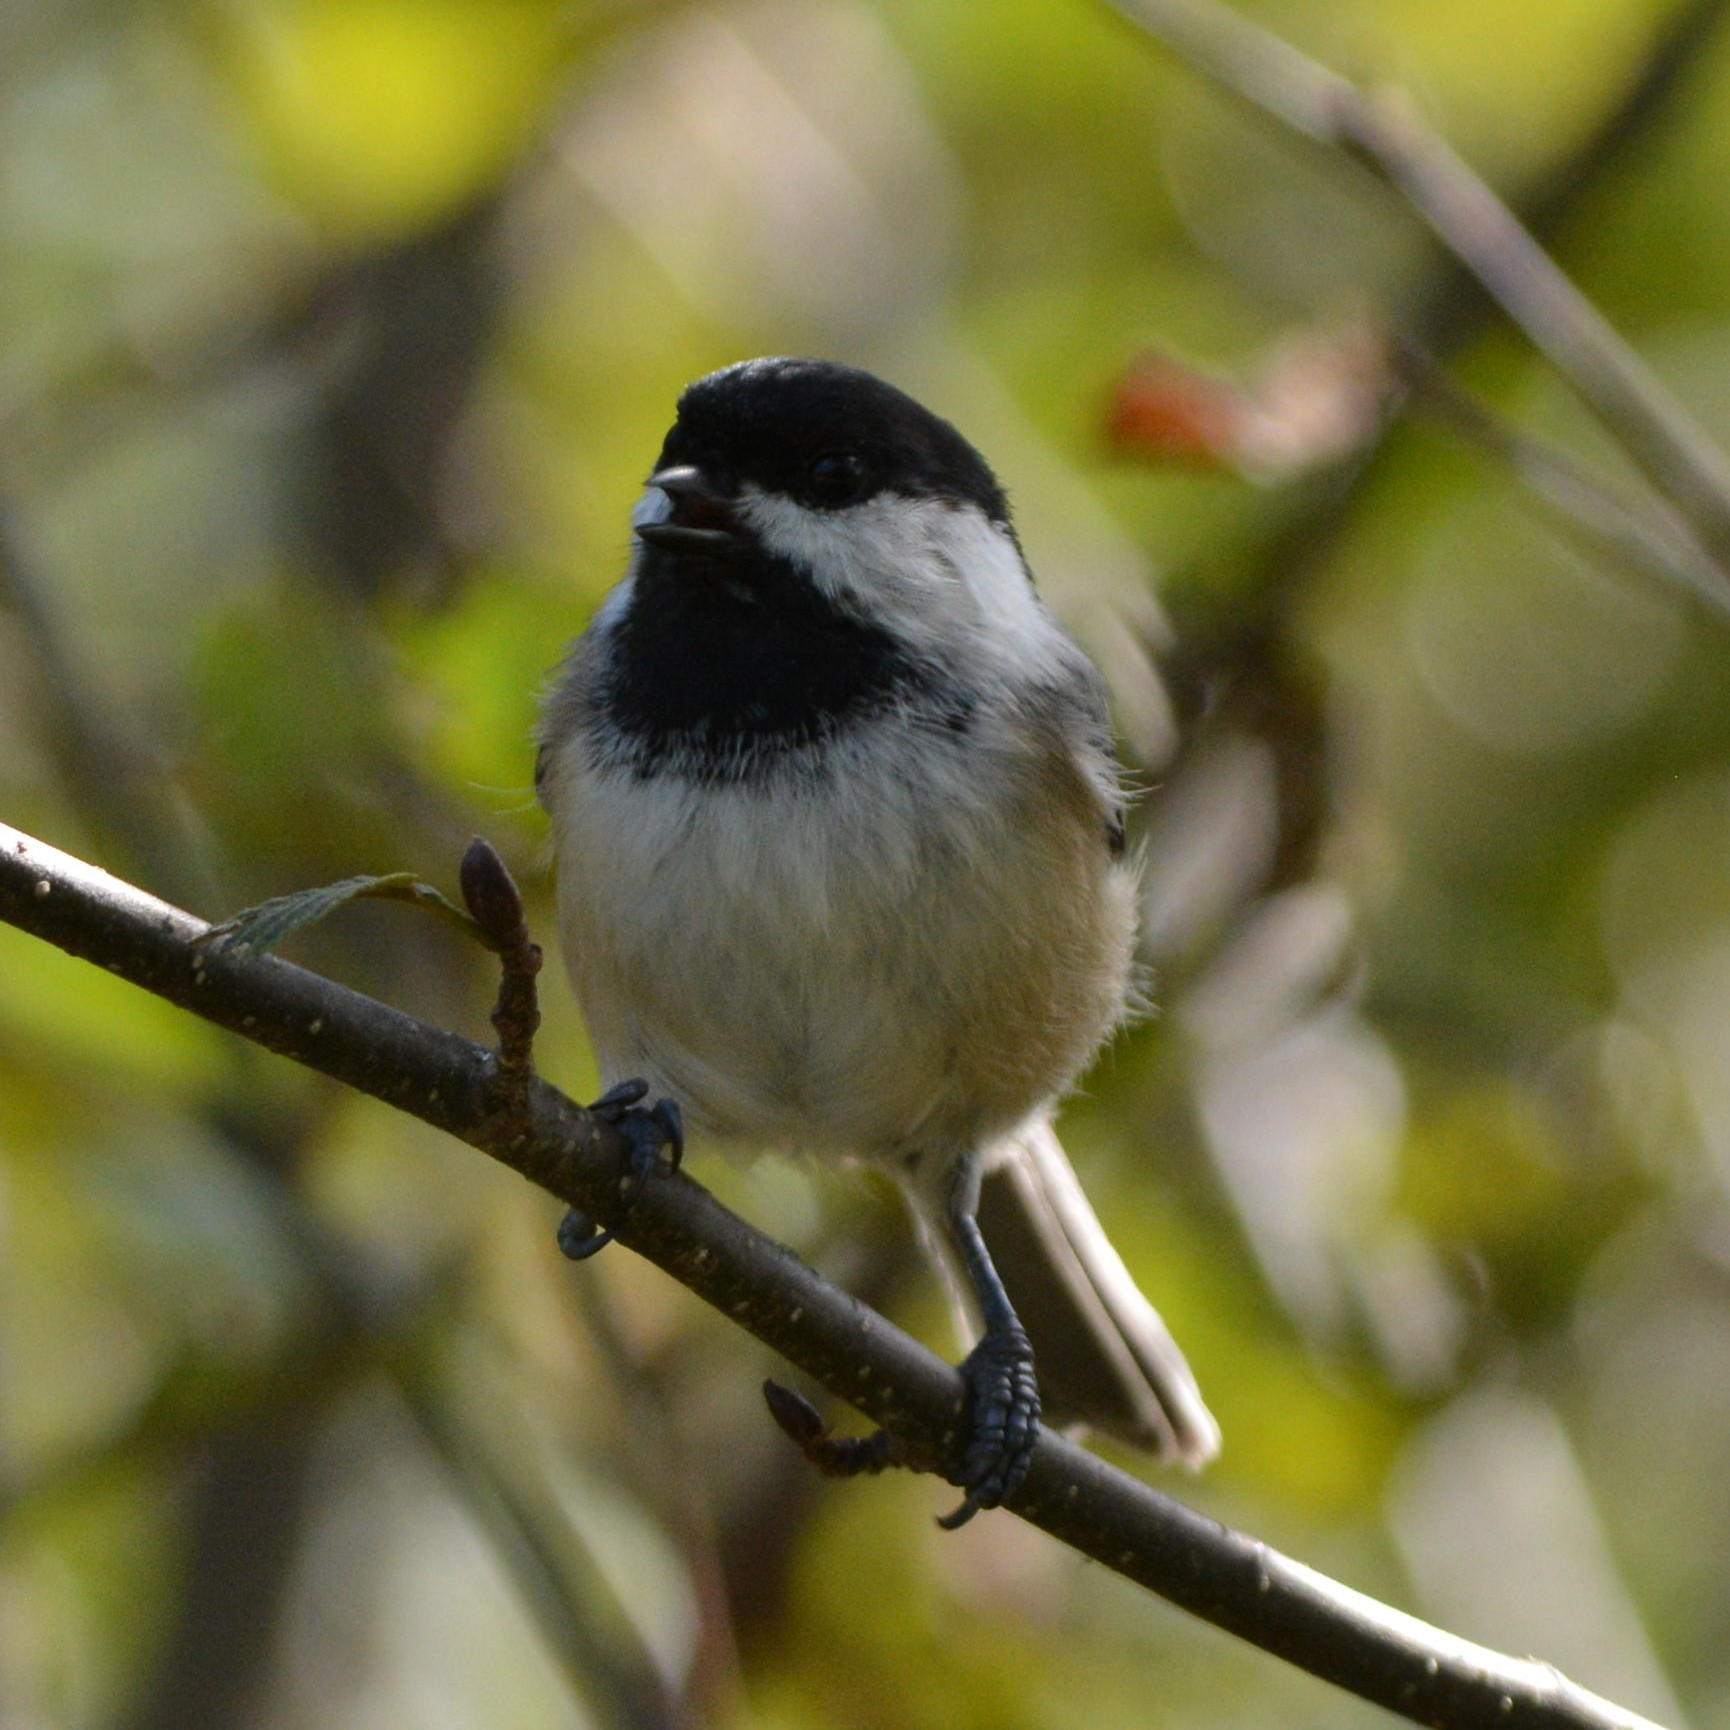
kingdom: Animalia
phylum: Chordata
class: Aves
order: Passeriformes
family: Paridae
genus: Poecile
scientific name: Poecile atricapillus
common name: Black-capped chickadee
